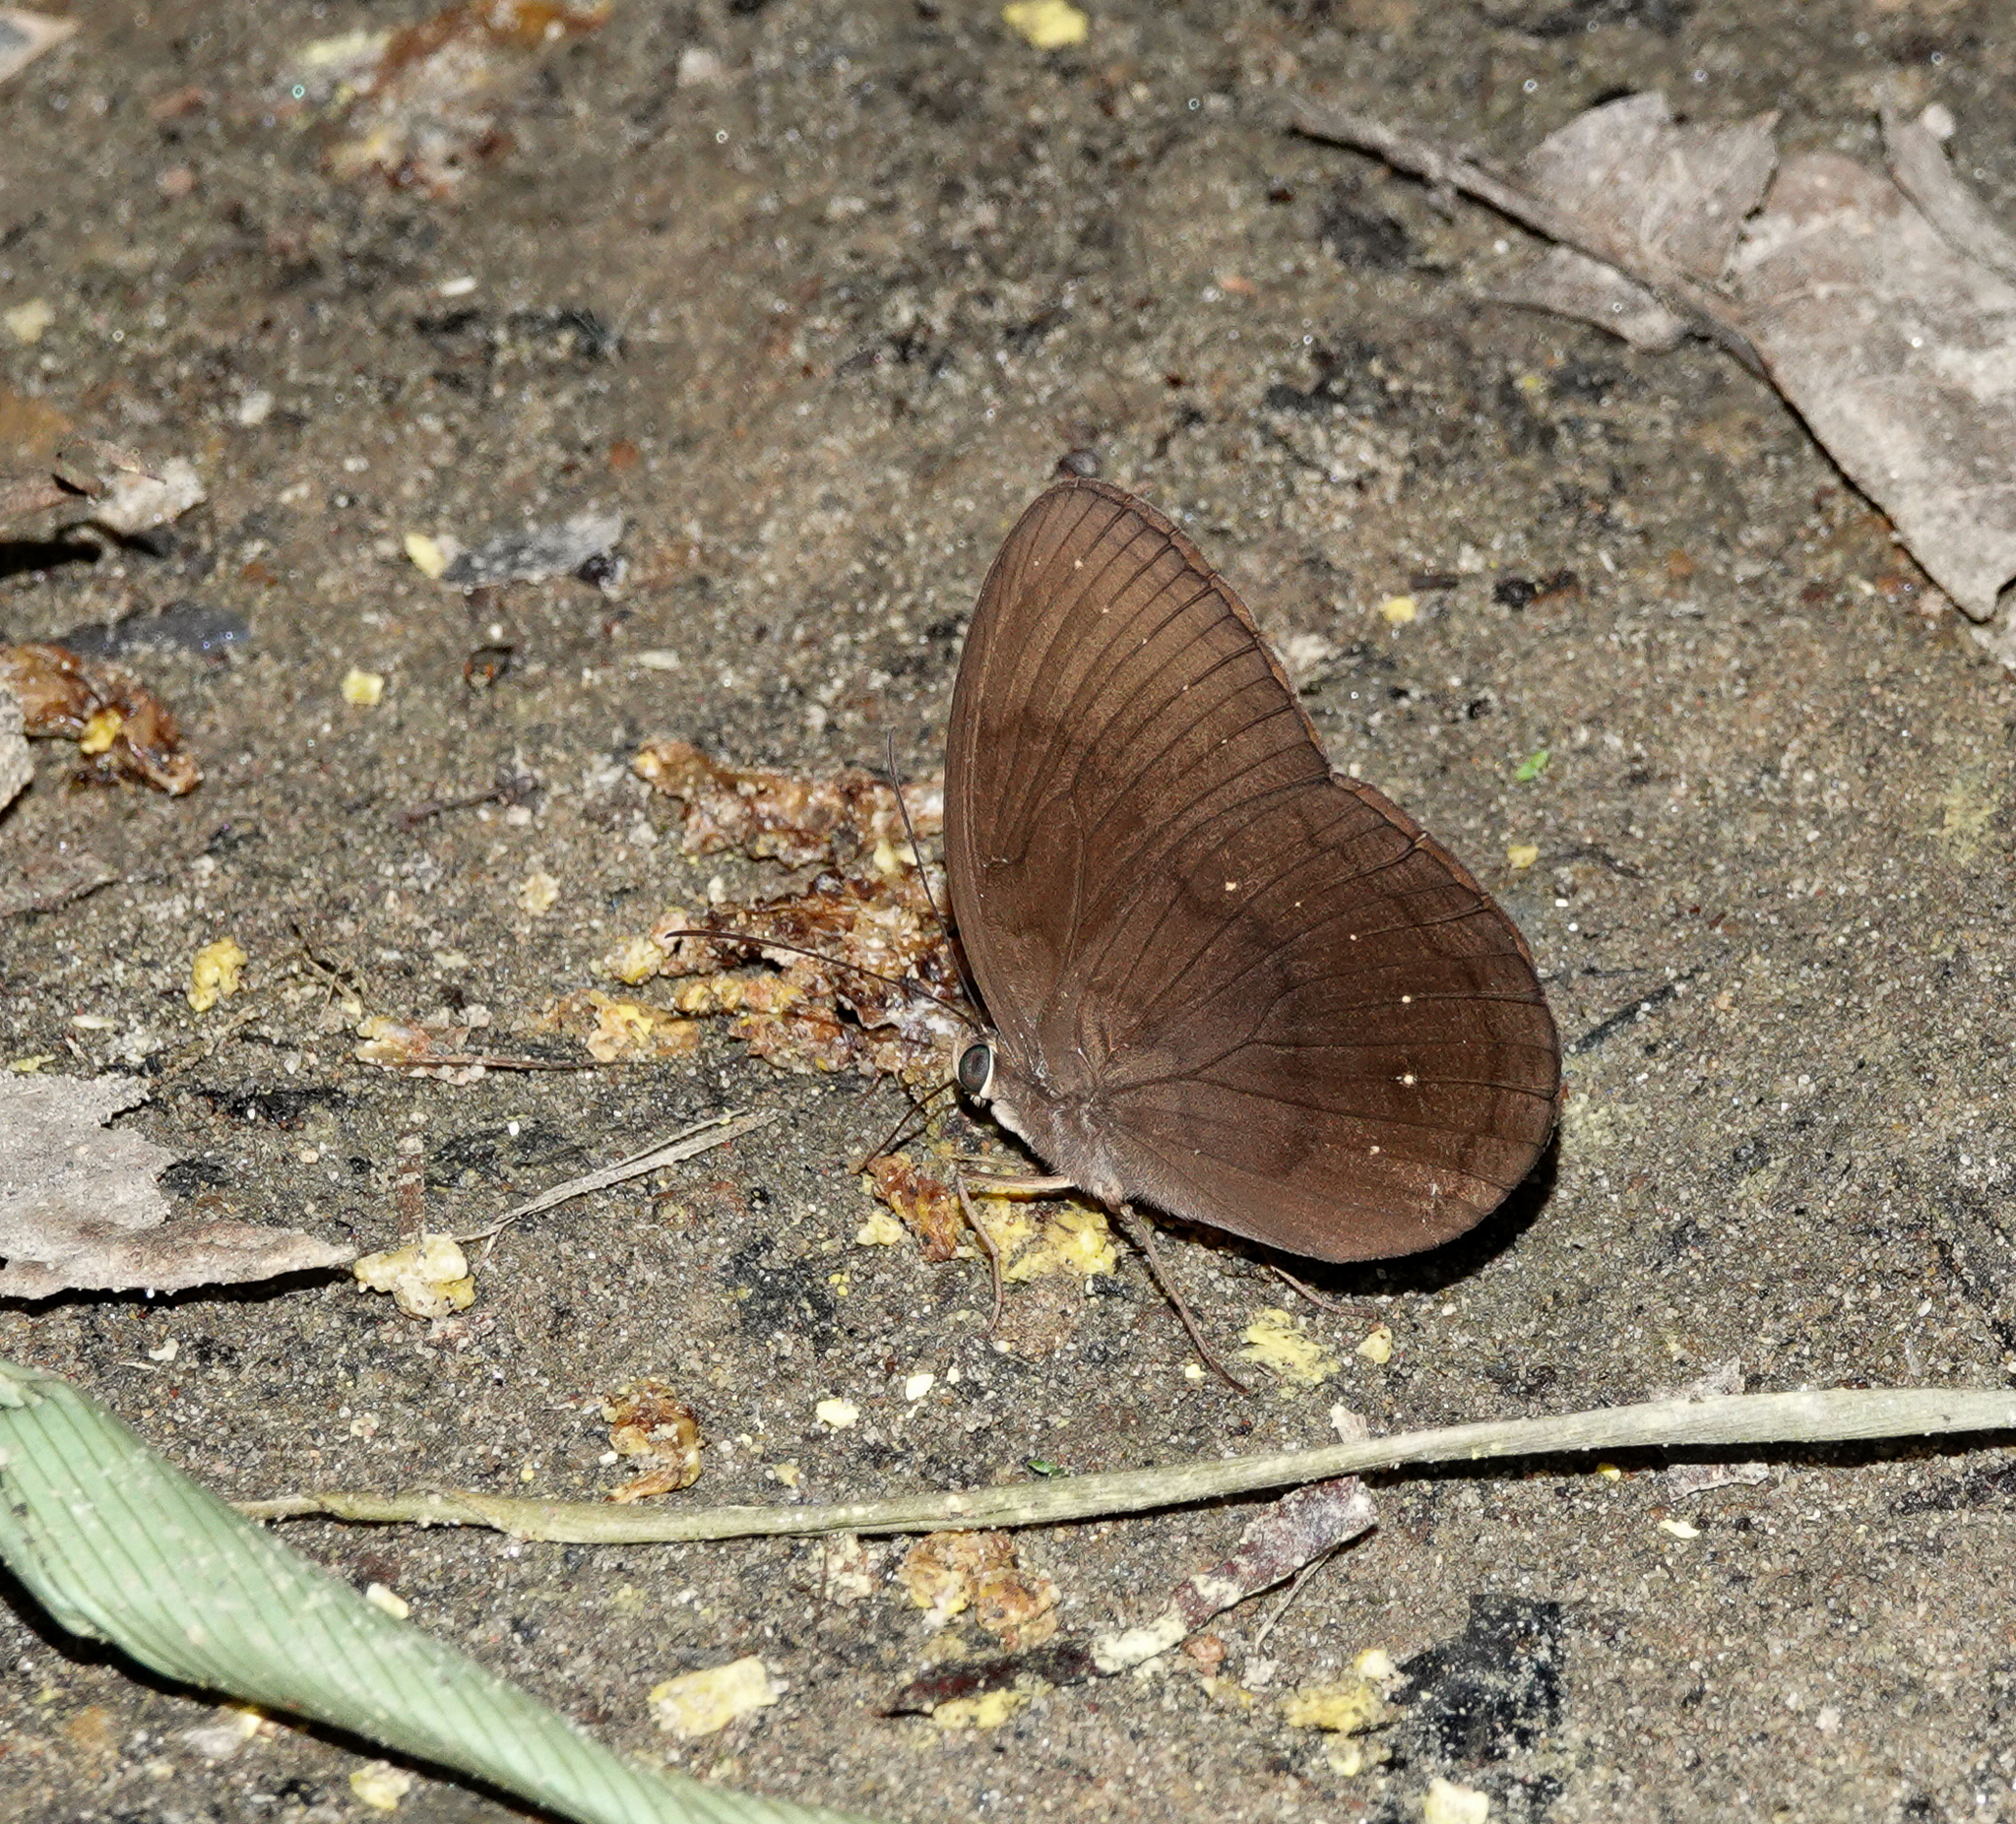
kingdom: Animalia
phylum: Arthropoda
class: Insecta
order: Lepidoptera
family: Nymphalidae
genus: Faunis
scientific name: Faunis canens
